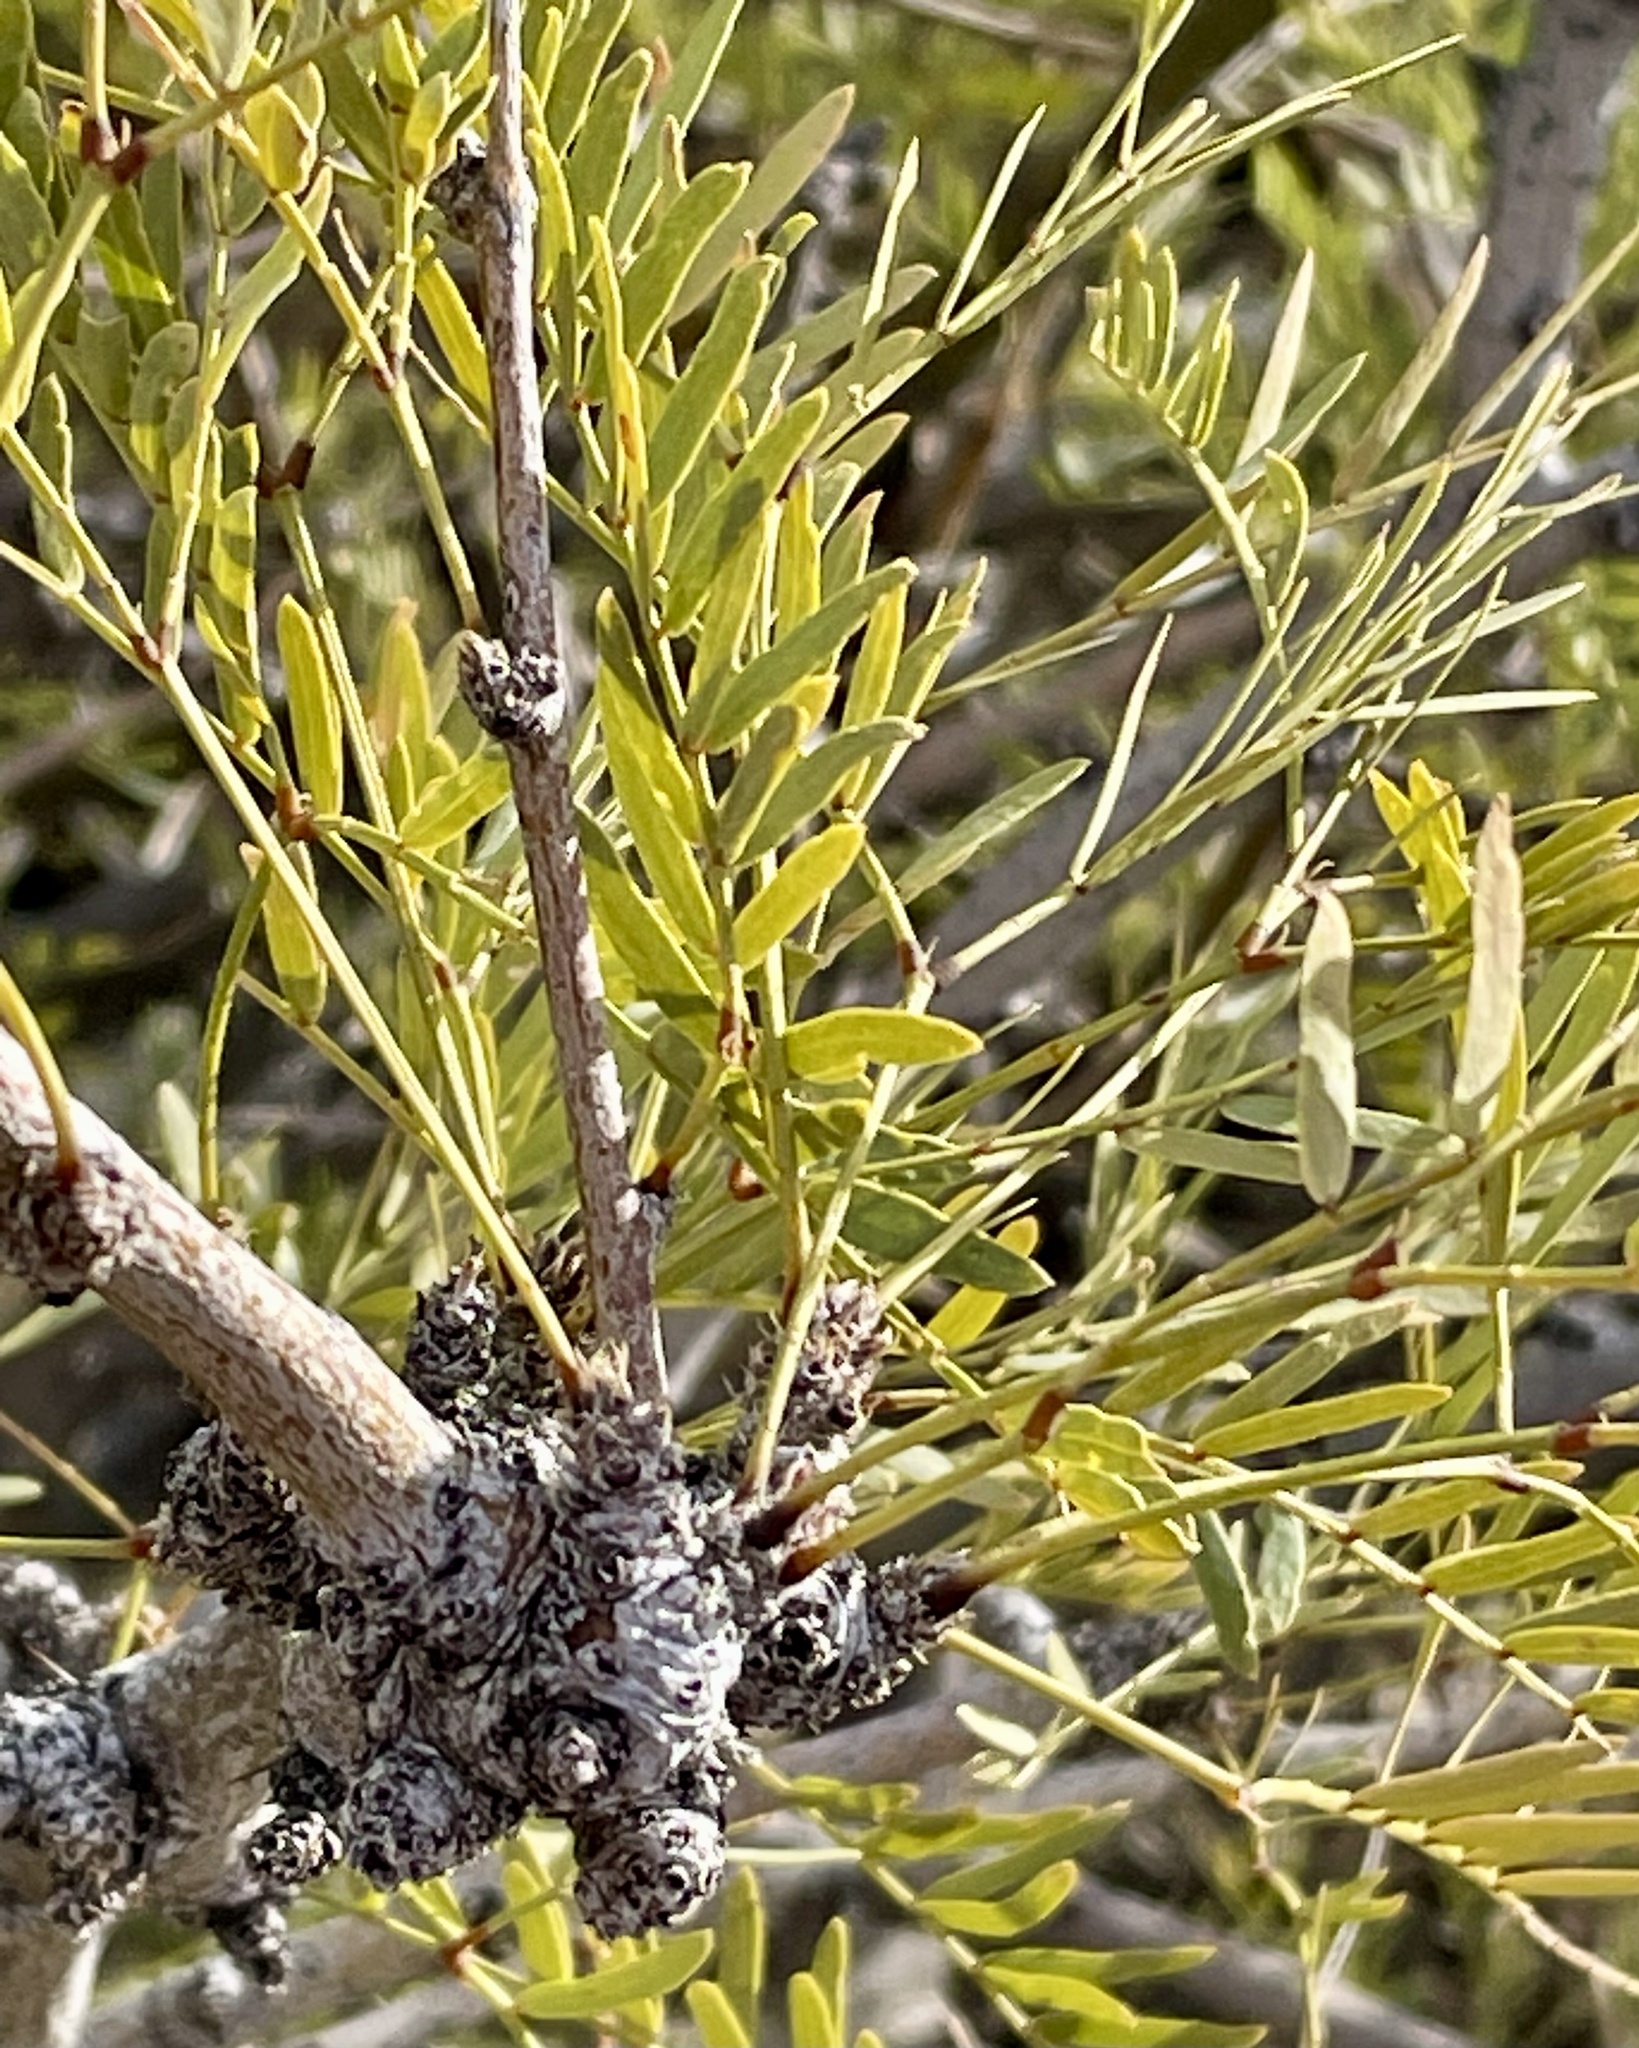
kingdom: Plantae
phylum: Tracheophyta
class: Magnoliopsida
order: Fabales
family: Fabaceae
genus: Prosopis
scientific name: Prosopis pubescens
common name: Screw-bean
